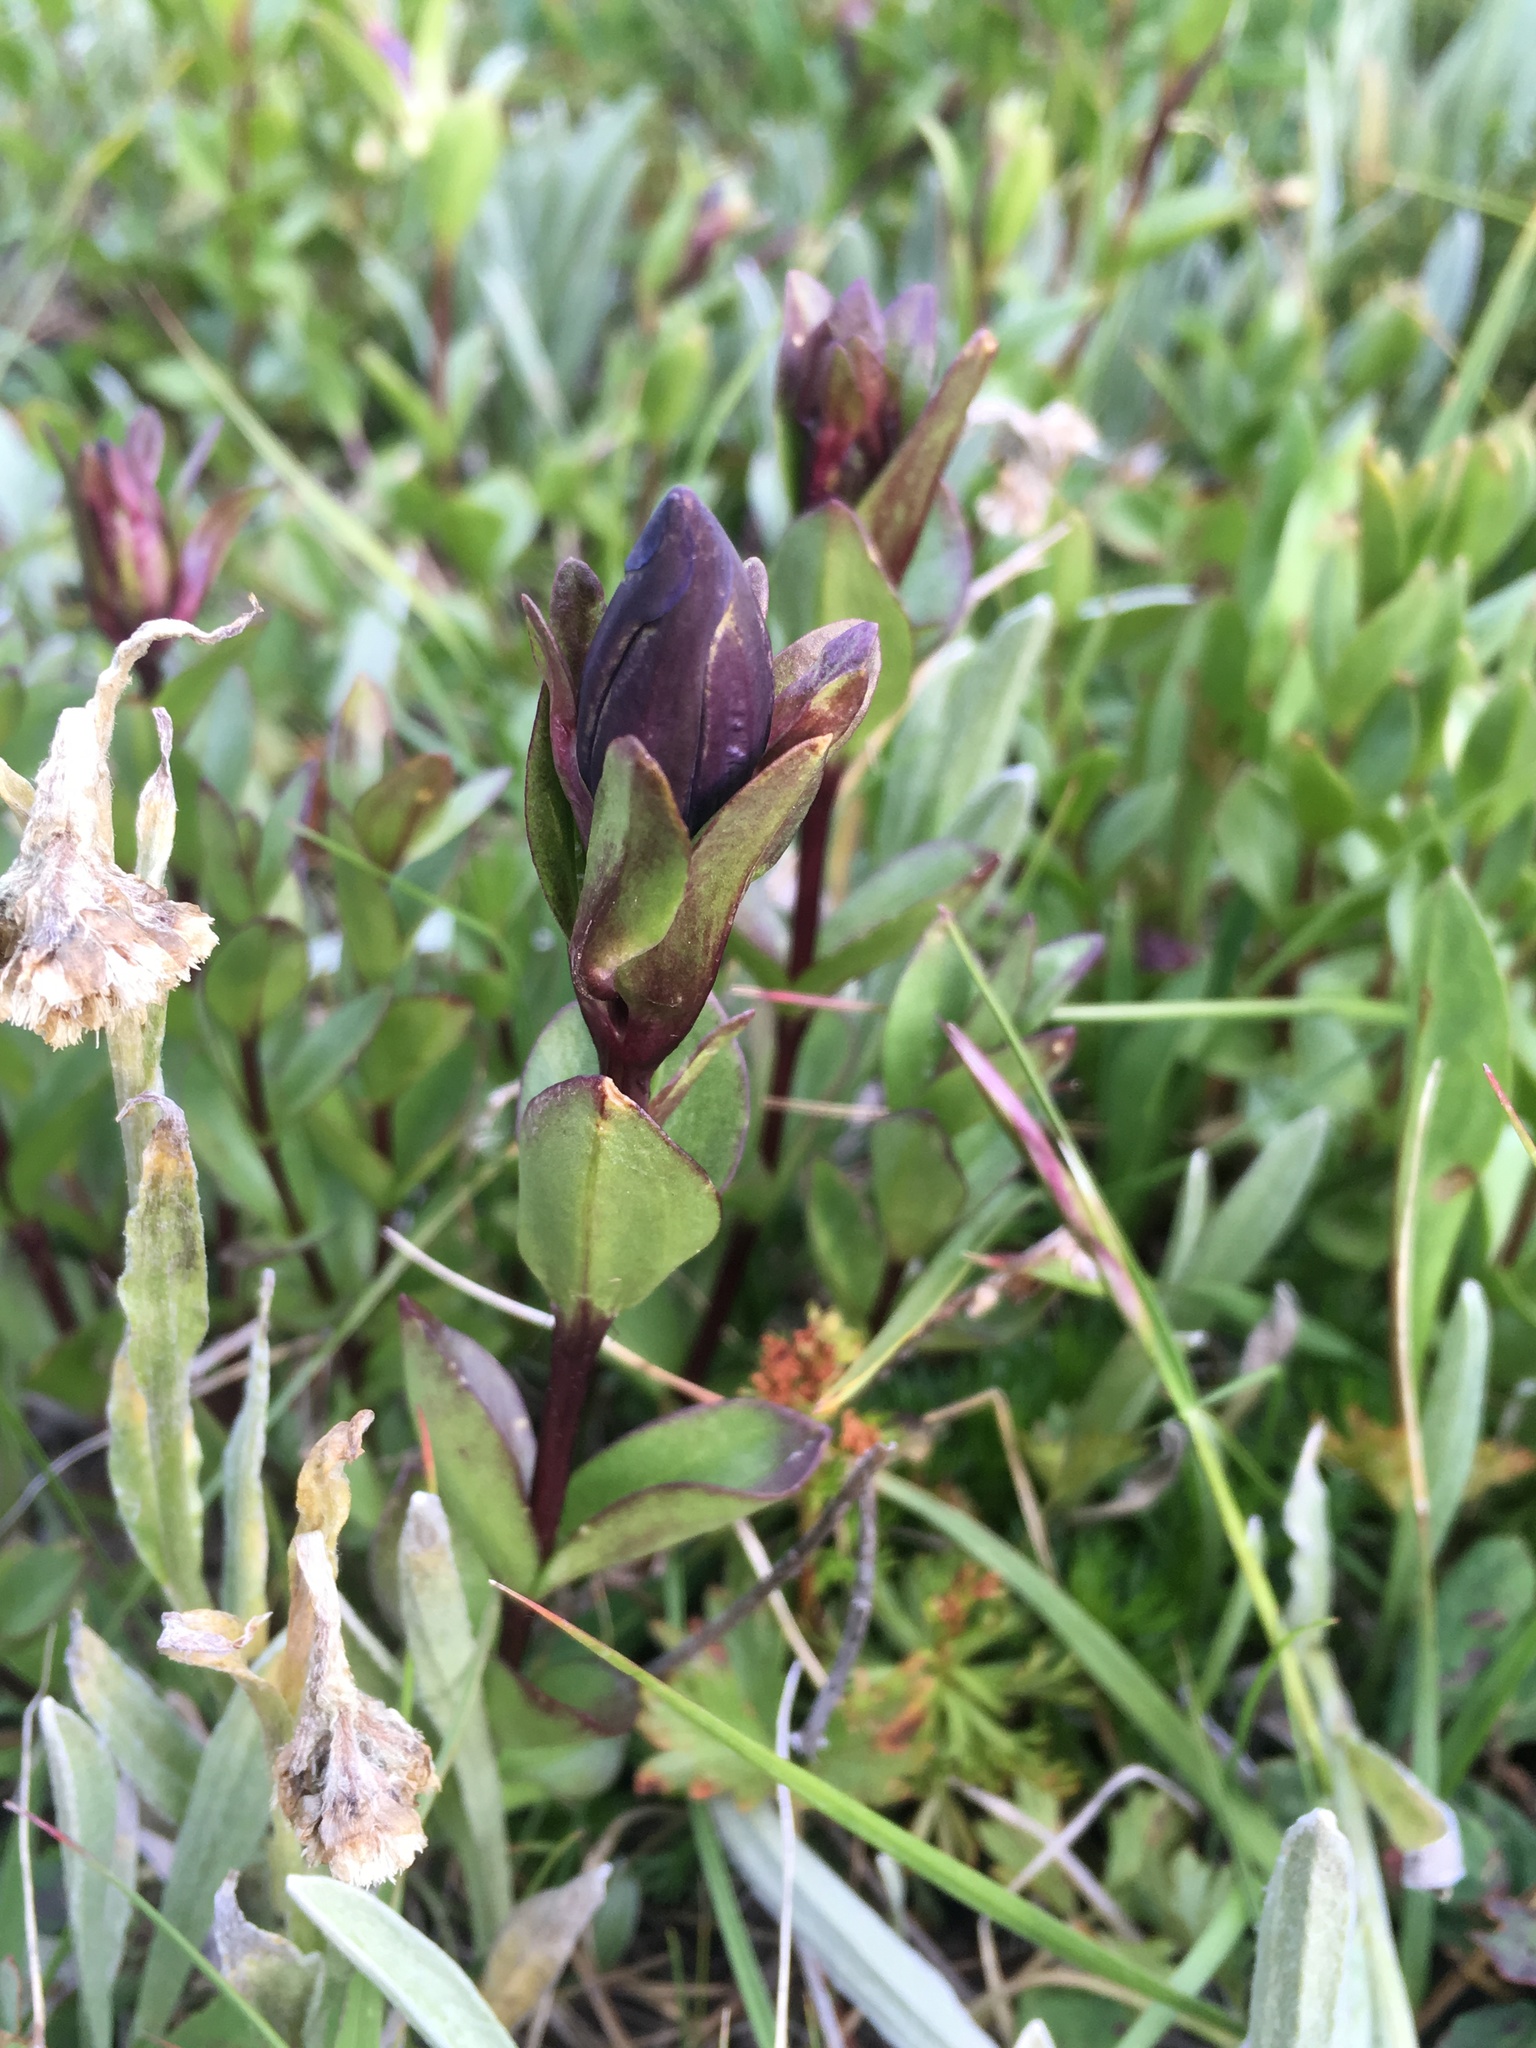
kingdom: Plantae
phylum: Tracheophyta
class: Magnoliopsida
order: Gentianales
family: Gentianaceae
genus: Gentiana
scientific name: Gentiana calycosa
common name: Rainier pleated gentian
